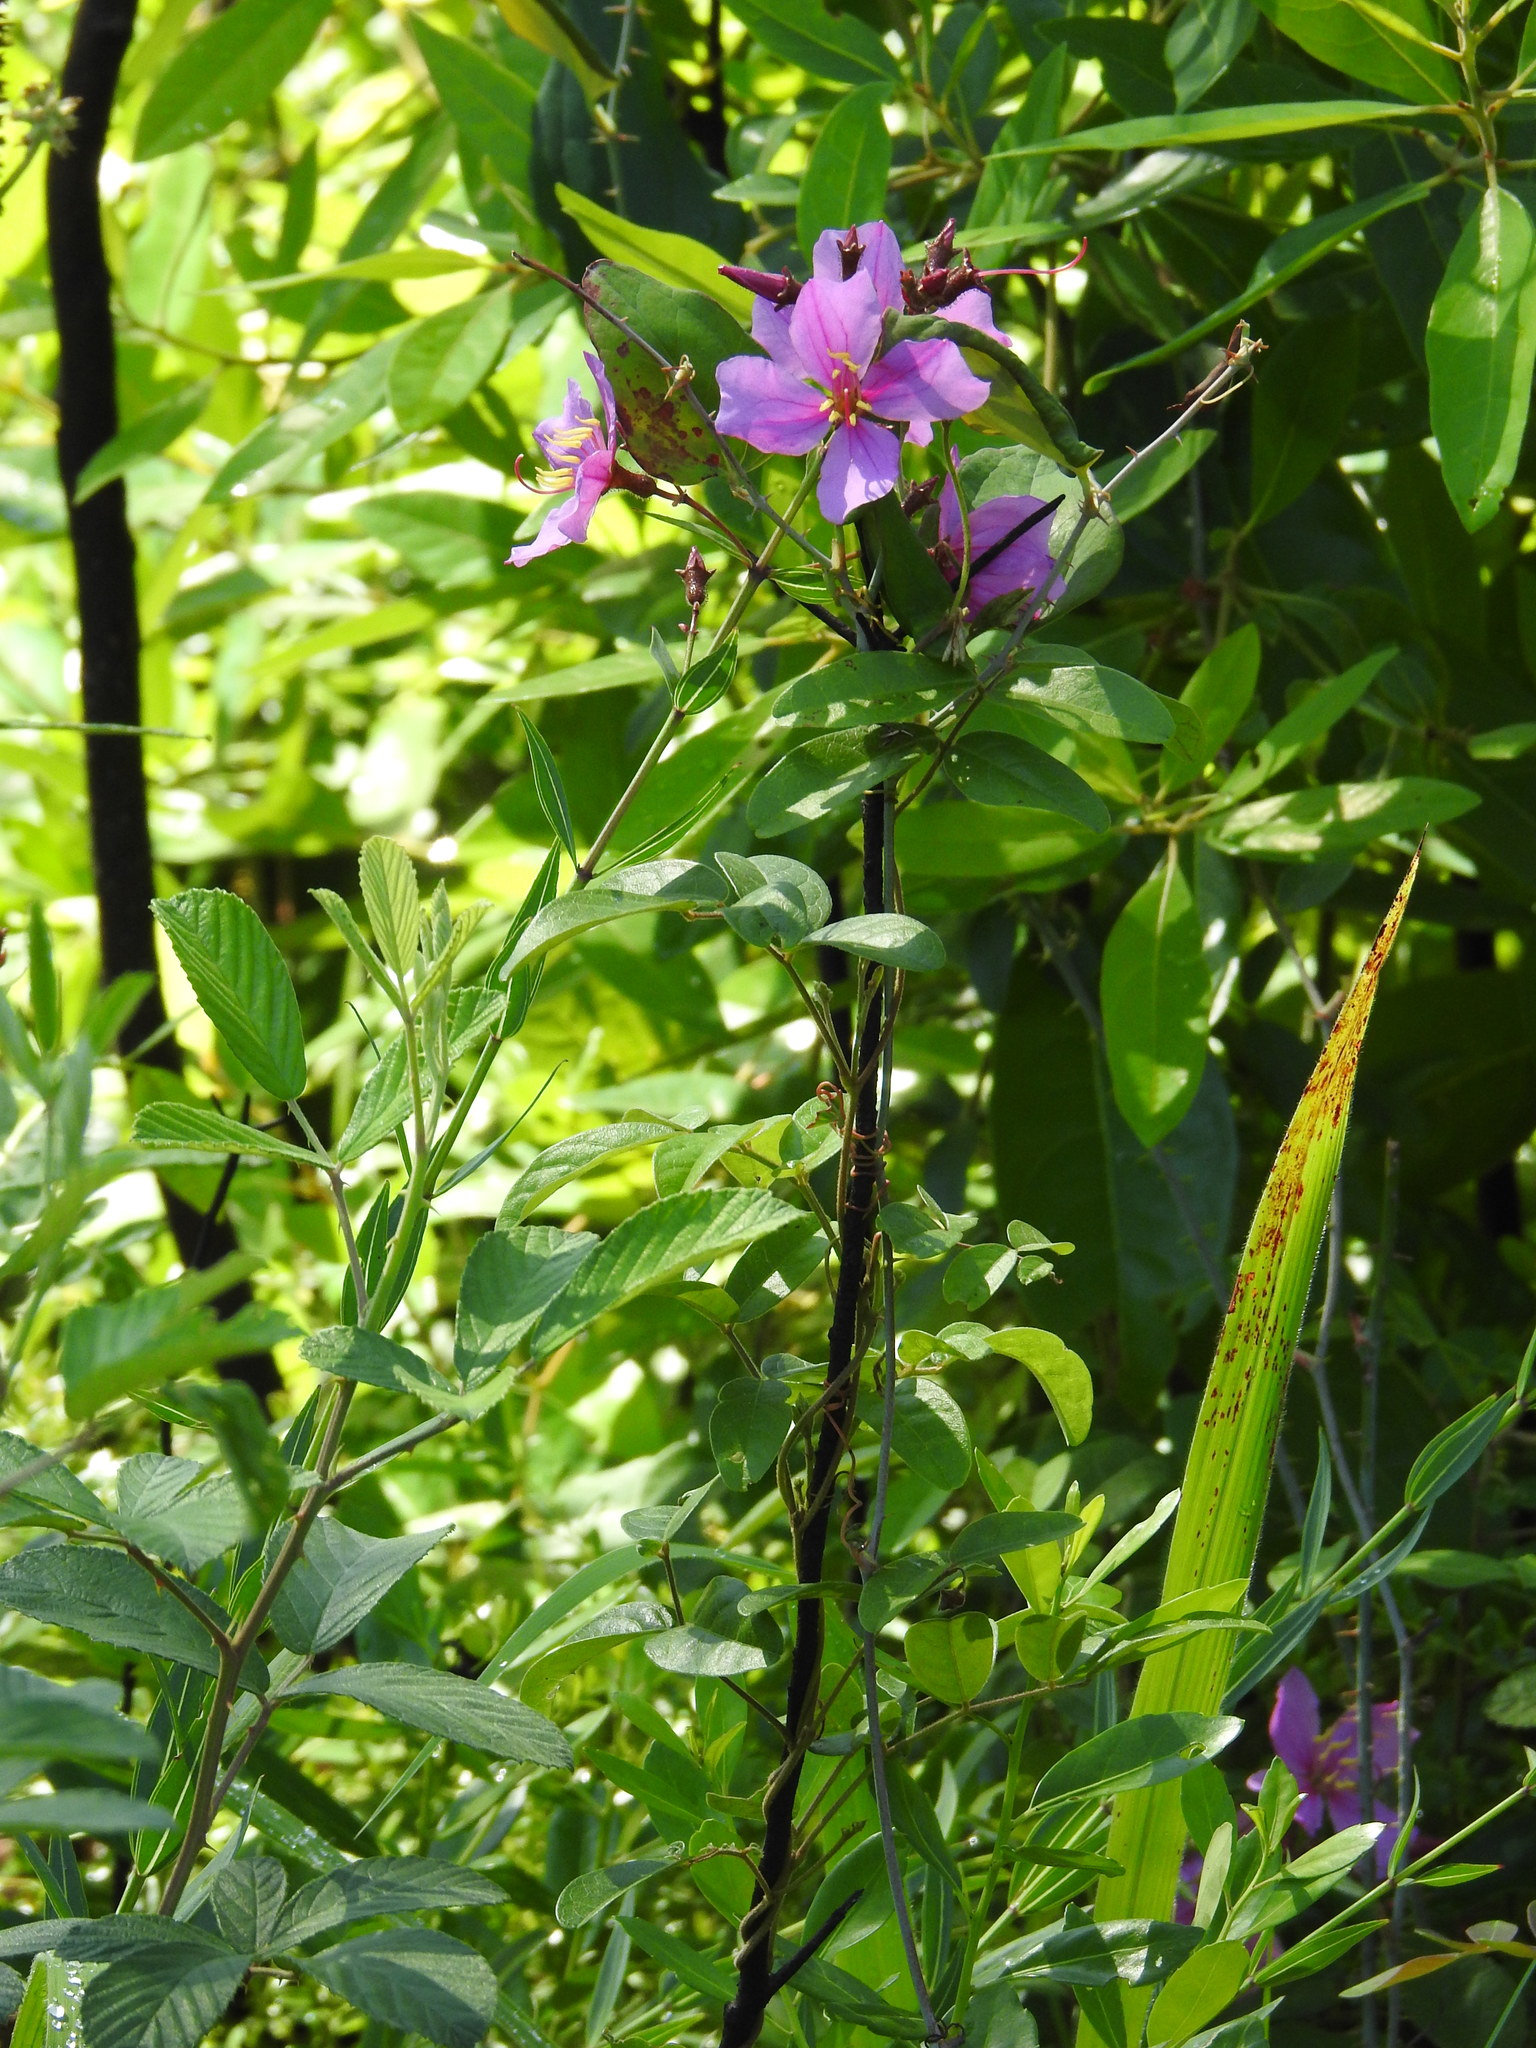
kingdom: Plantae
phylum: Tracheophyta
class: Magnoliopsida
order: Myrtales
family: Melastomataceae
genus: Rhexia
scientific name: Rhexia alifanus
